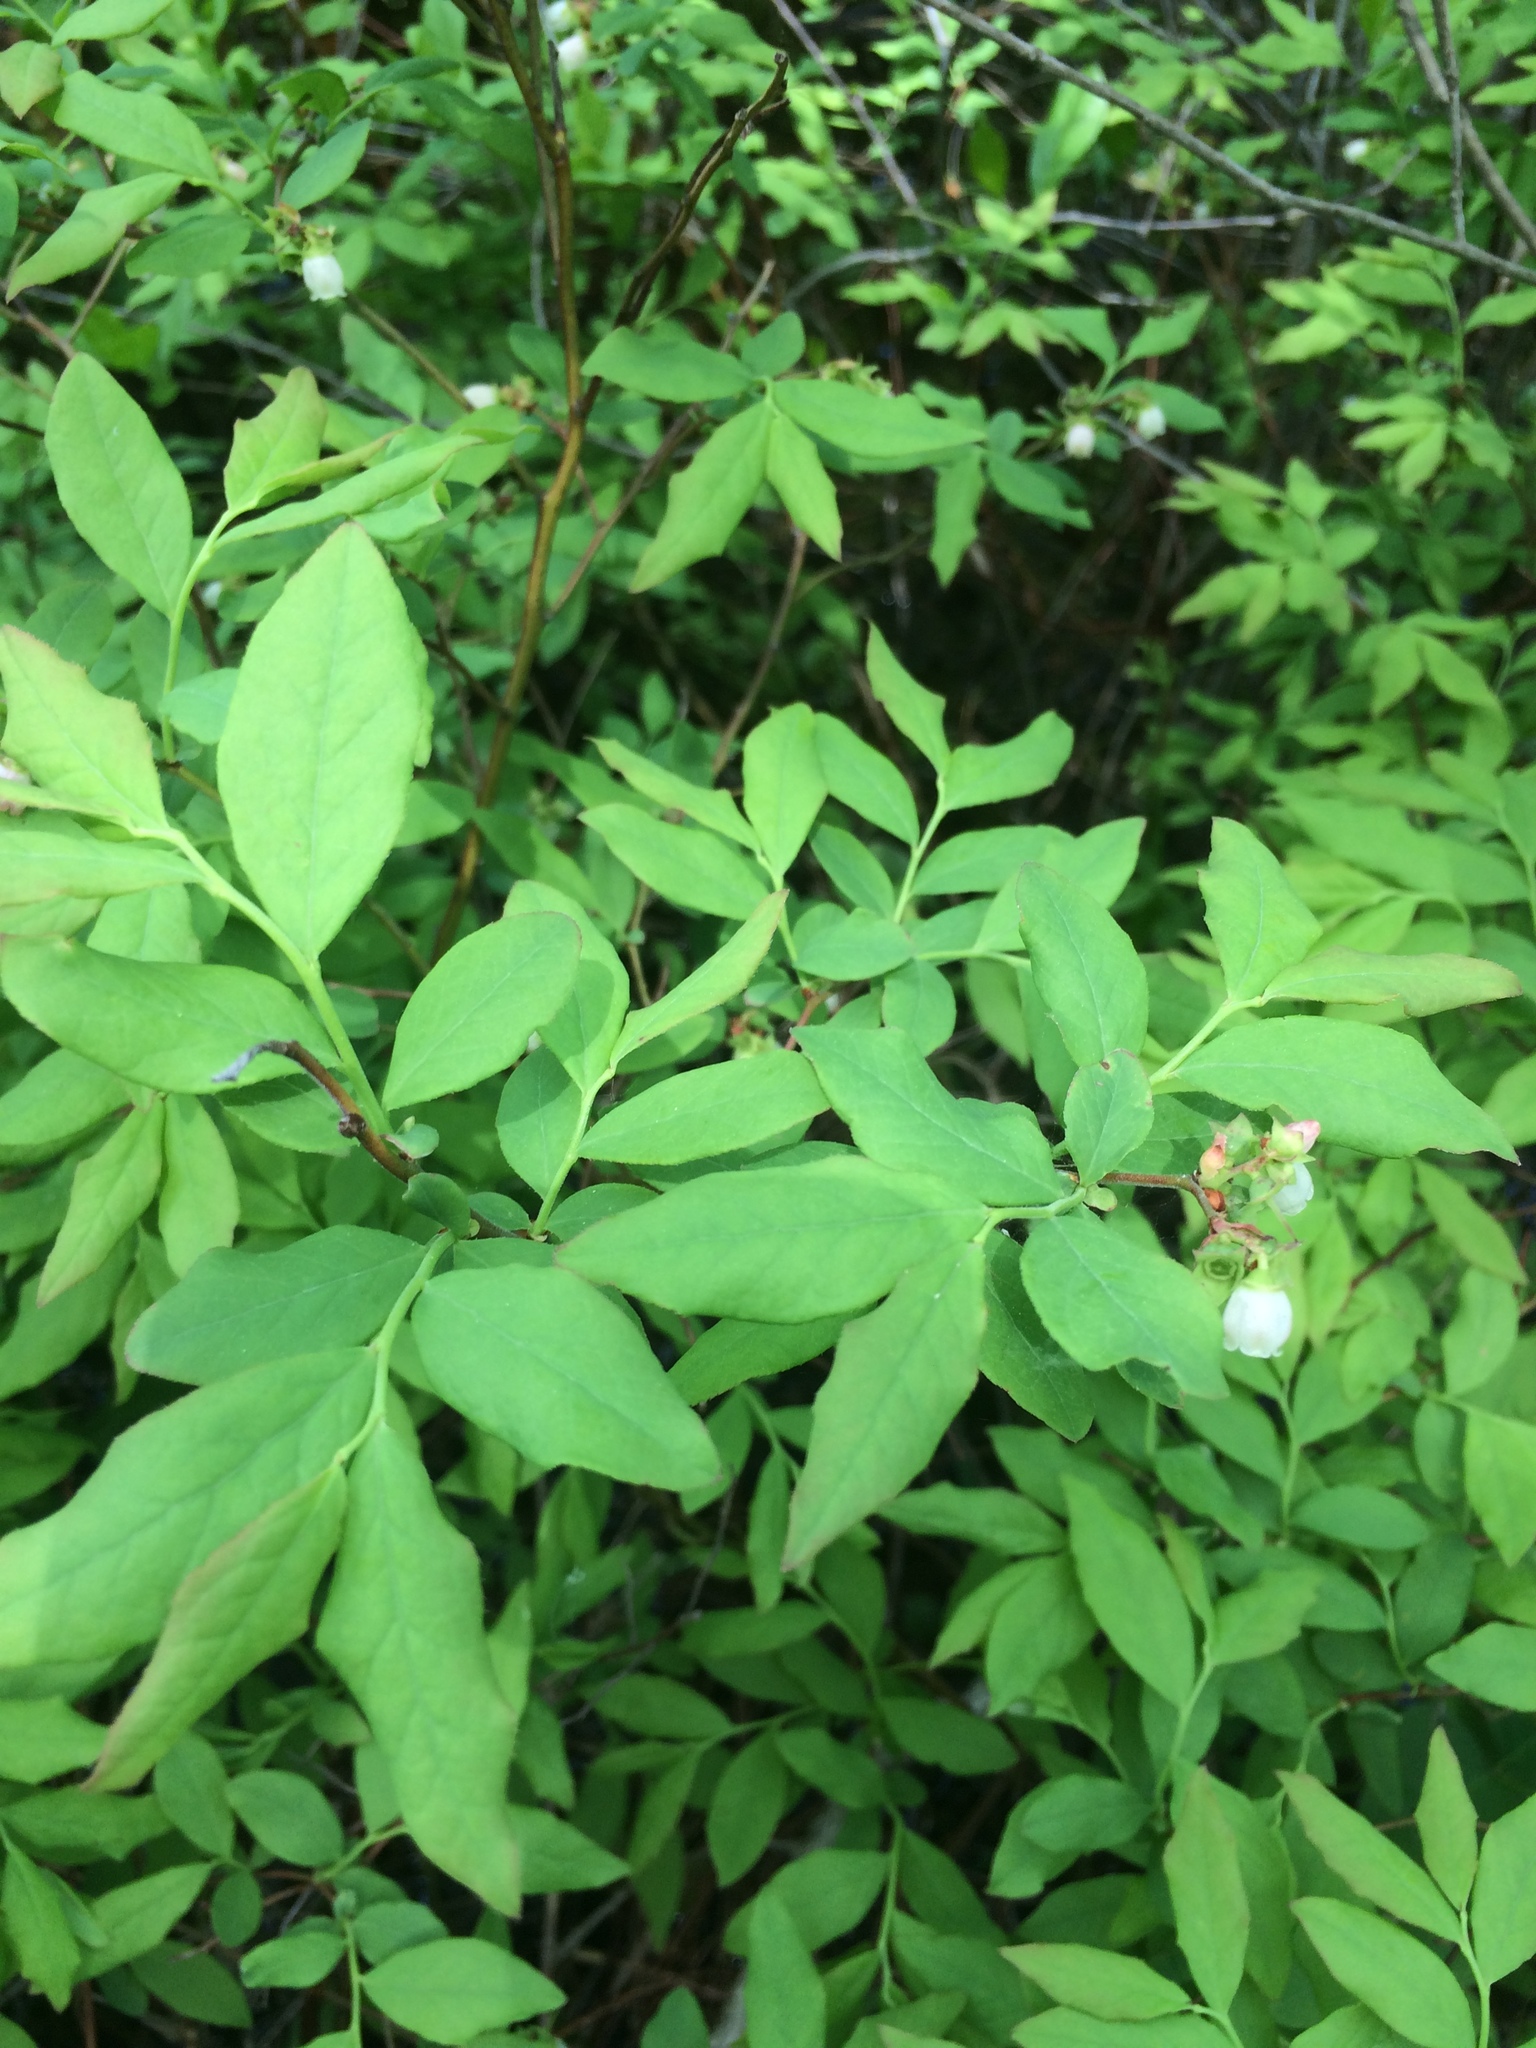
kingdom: Plantae
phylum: Tracheophyta
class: Magnoliopsida
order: Ericales
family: Ericaceae
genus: Vaccinium
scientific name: Vaccinium angustifolium
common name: Early lowbush blueberry
